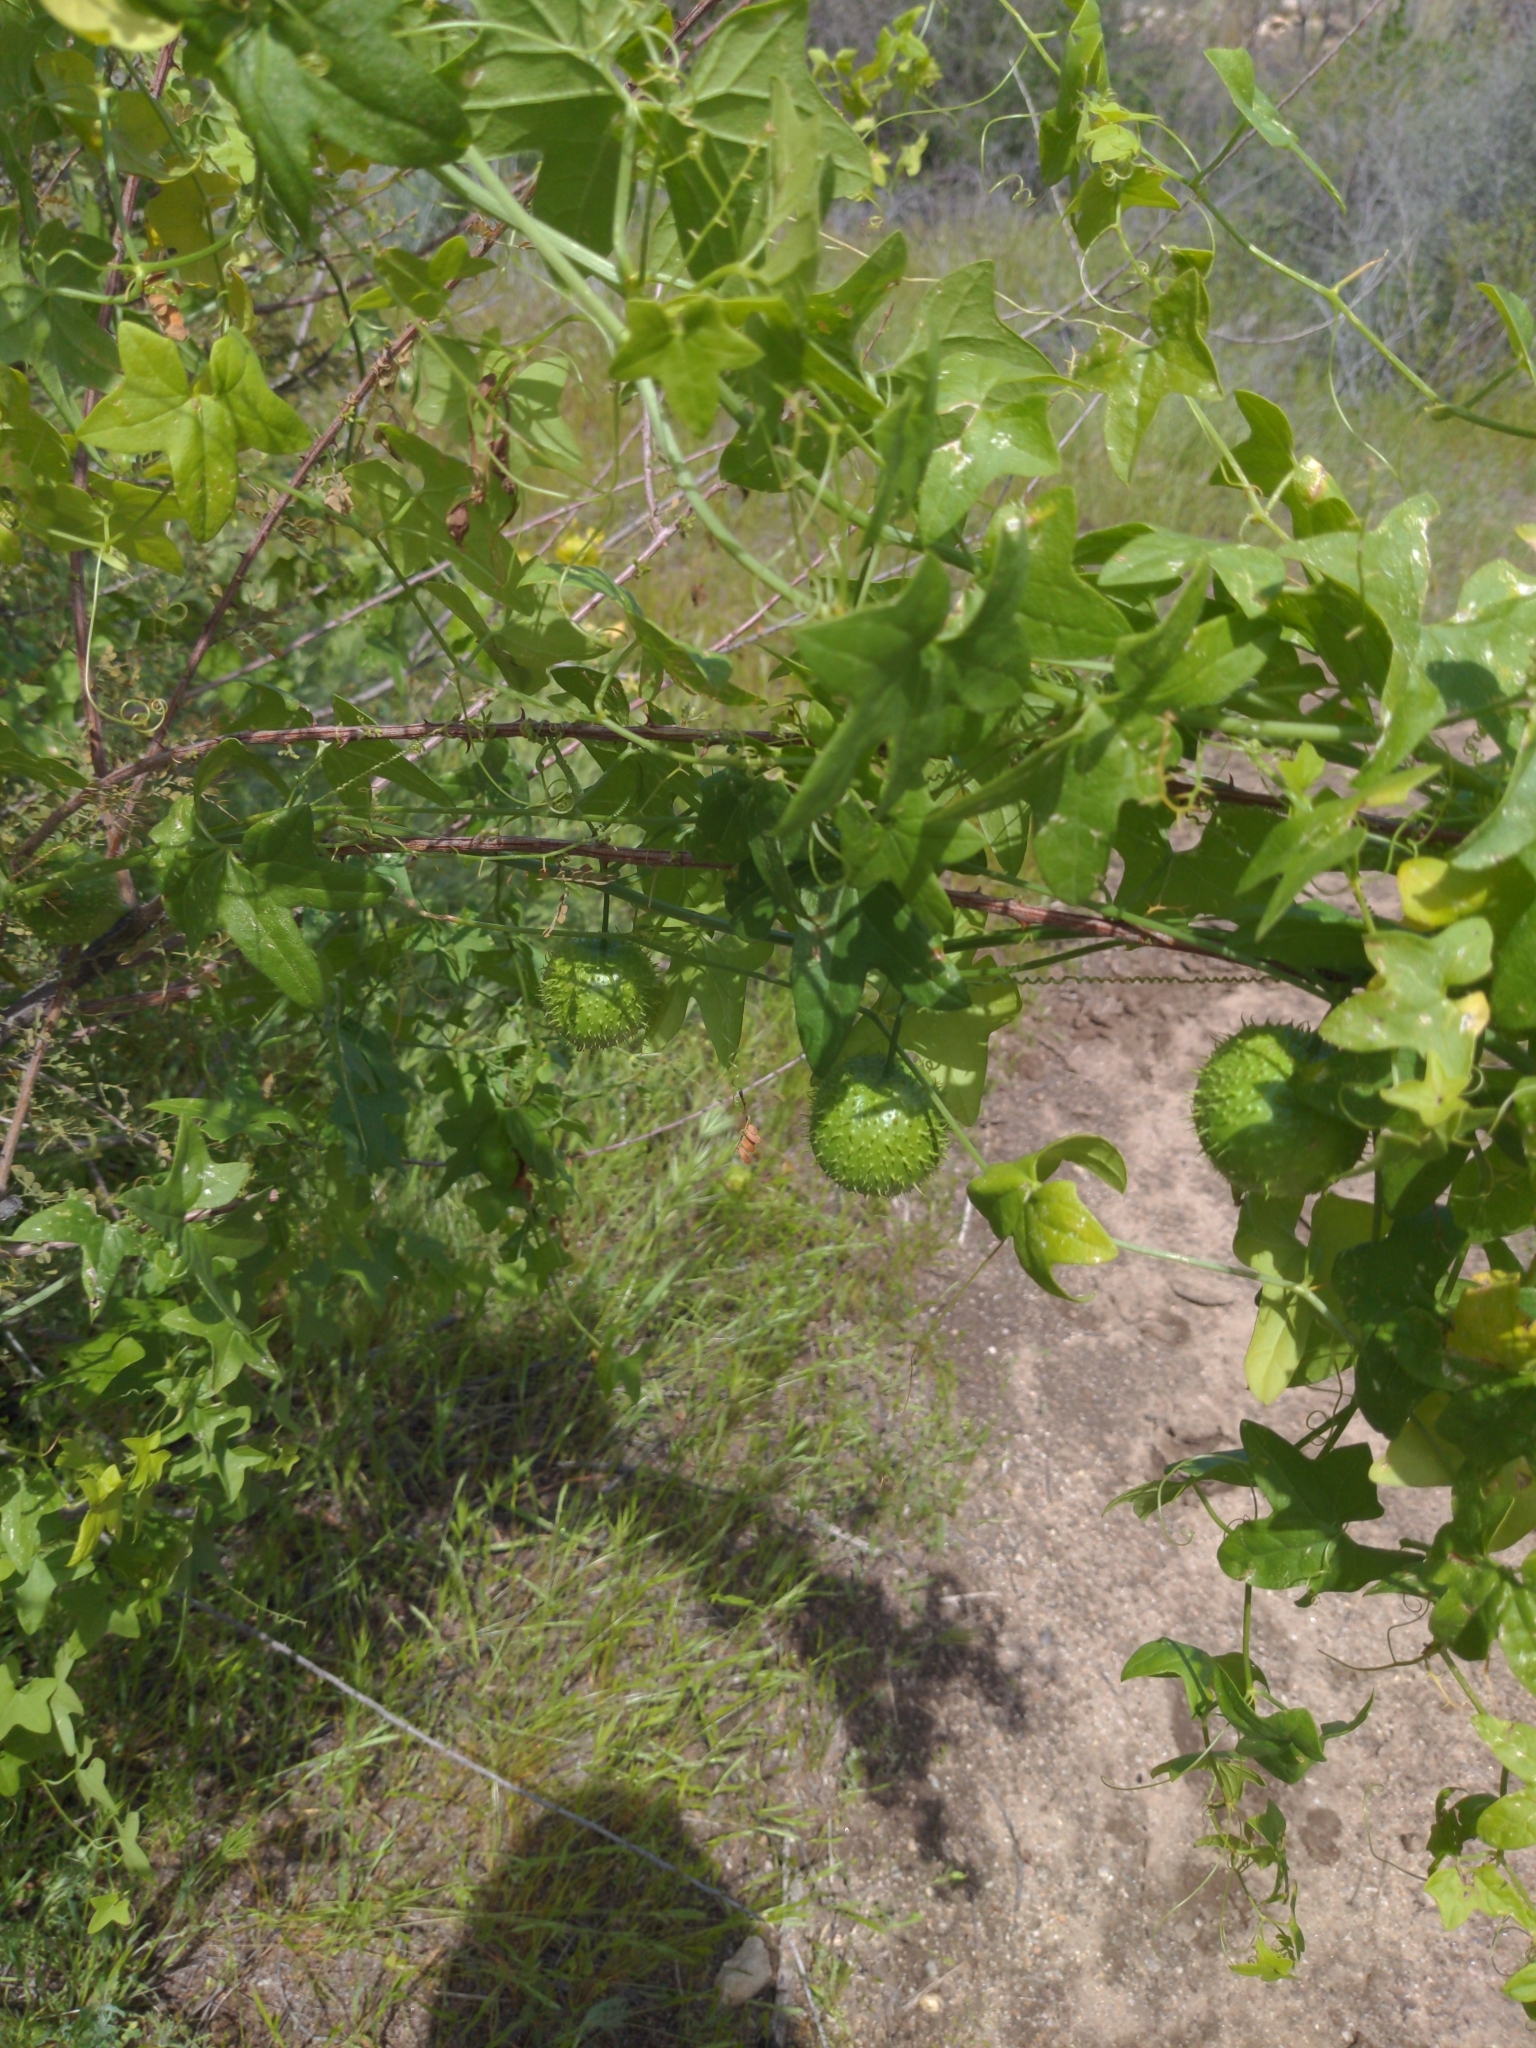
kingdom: Plantae
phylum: Tracheophyta
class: Magnoliopsida
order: Cucurbitales
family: Cucurbitaceae
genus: Marah
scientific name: Marah gilensis
